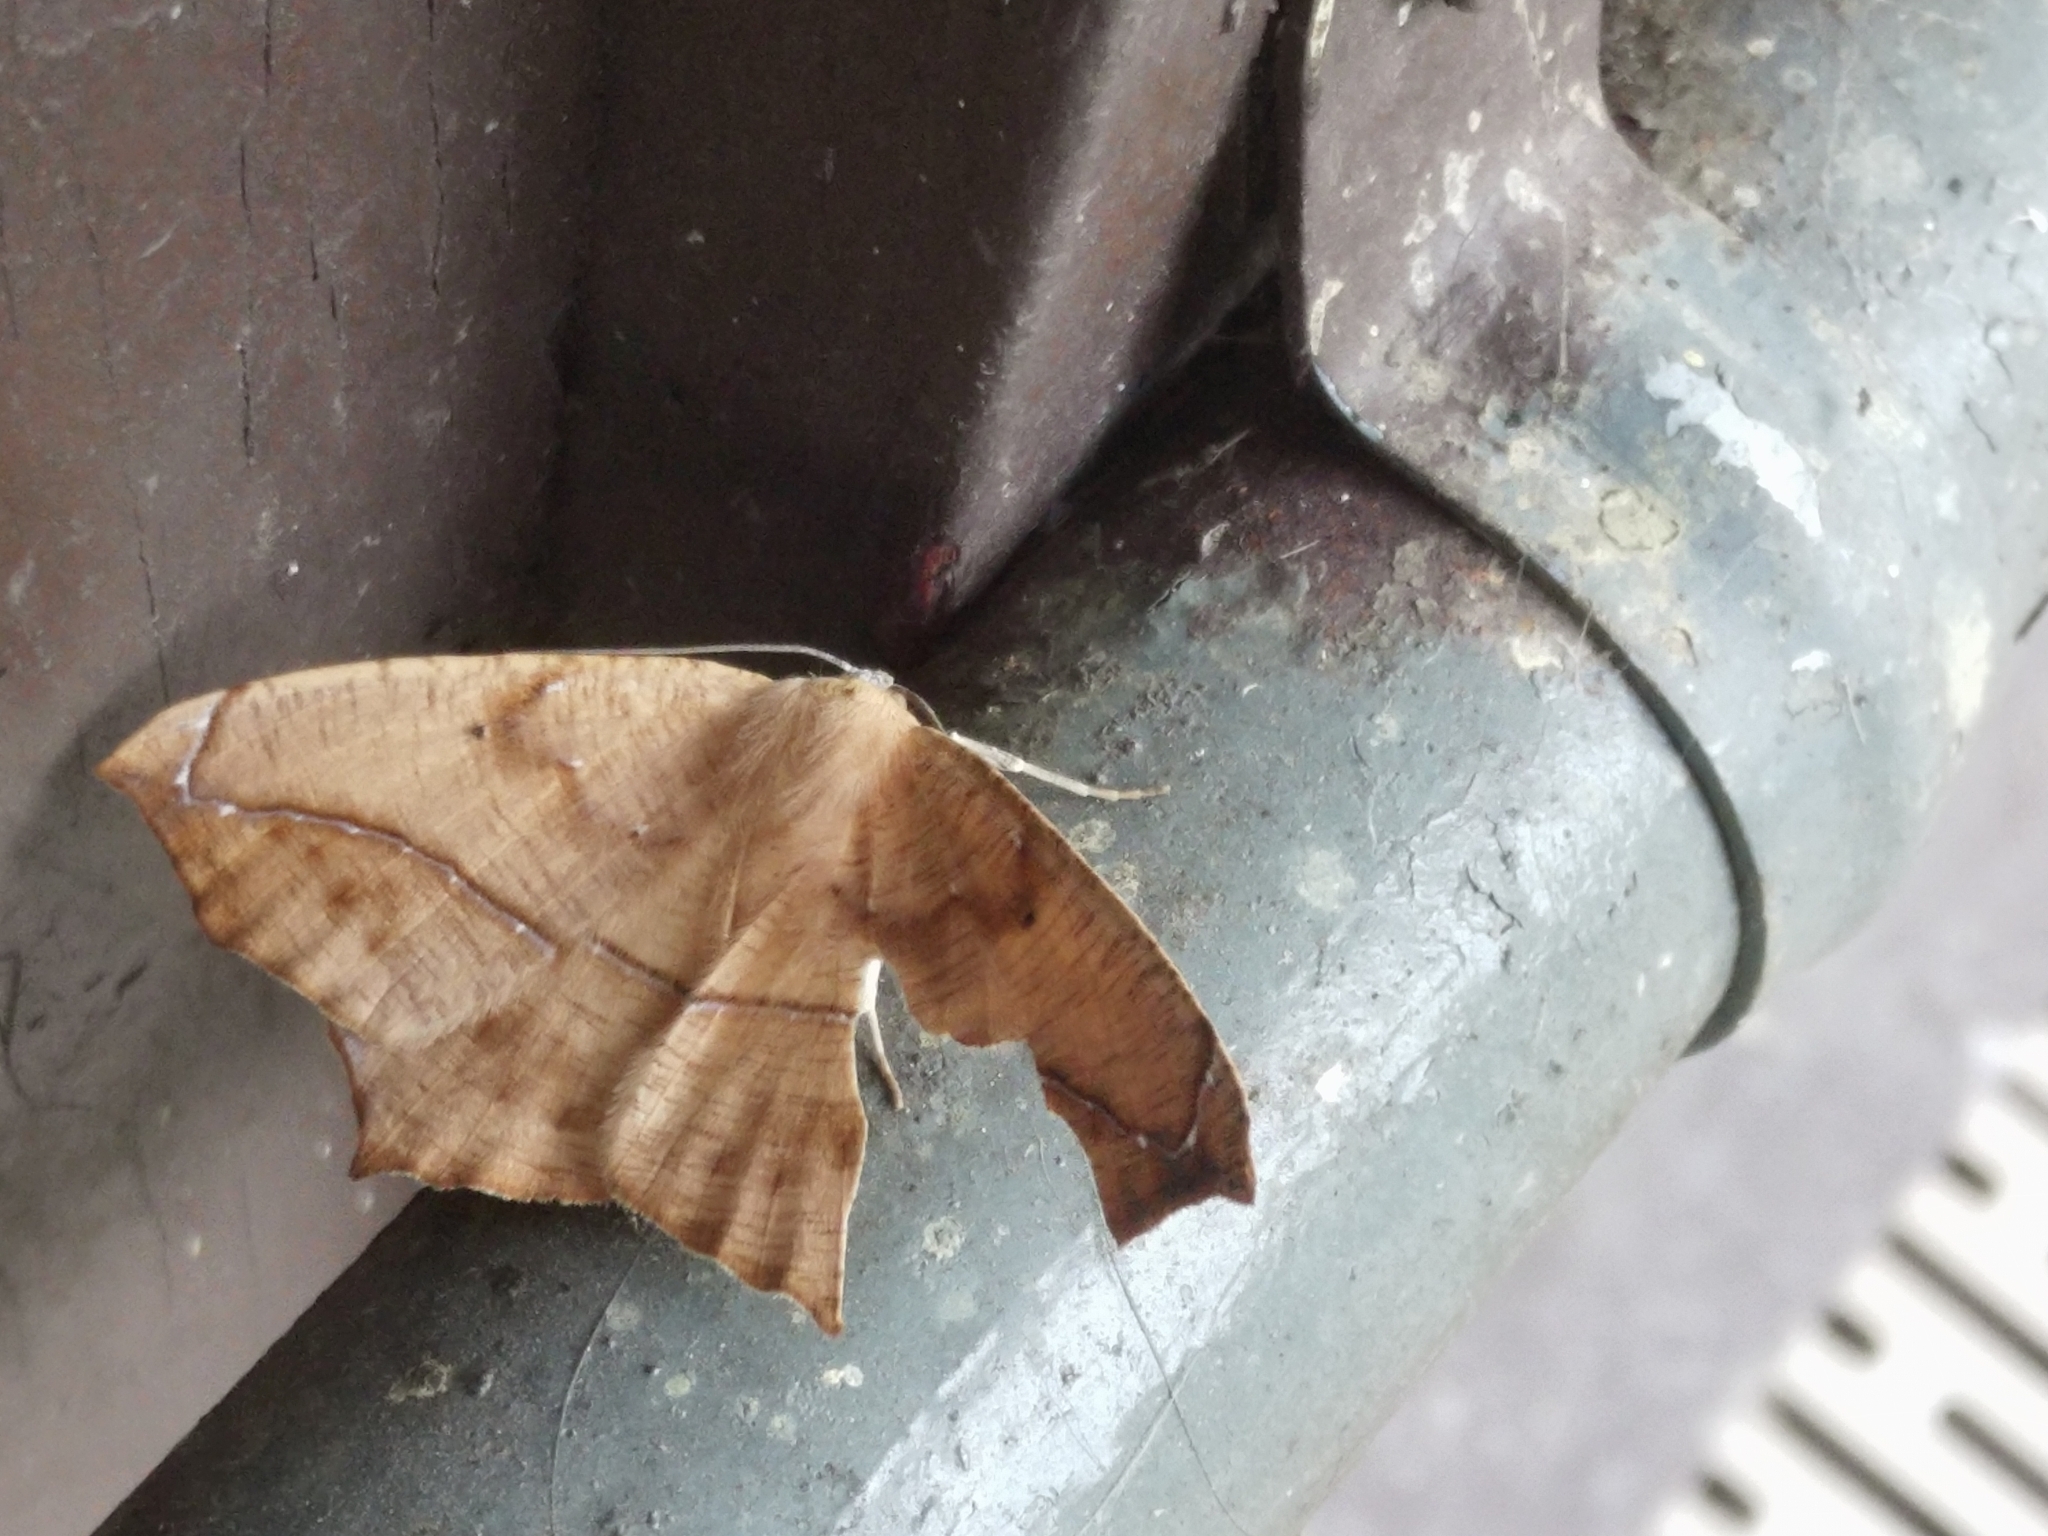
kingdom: Animalia
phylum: Arthropoda
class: Insecta
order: Lepidoptera
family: Geometridae
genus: Prochoerodes
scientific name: Prochoerodes lineola
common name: Large maple spanworm
